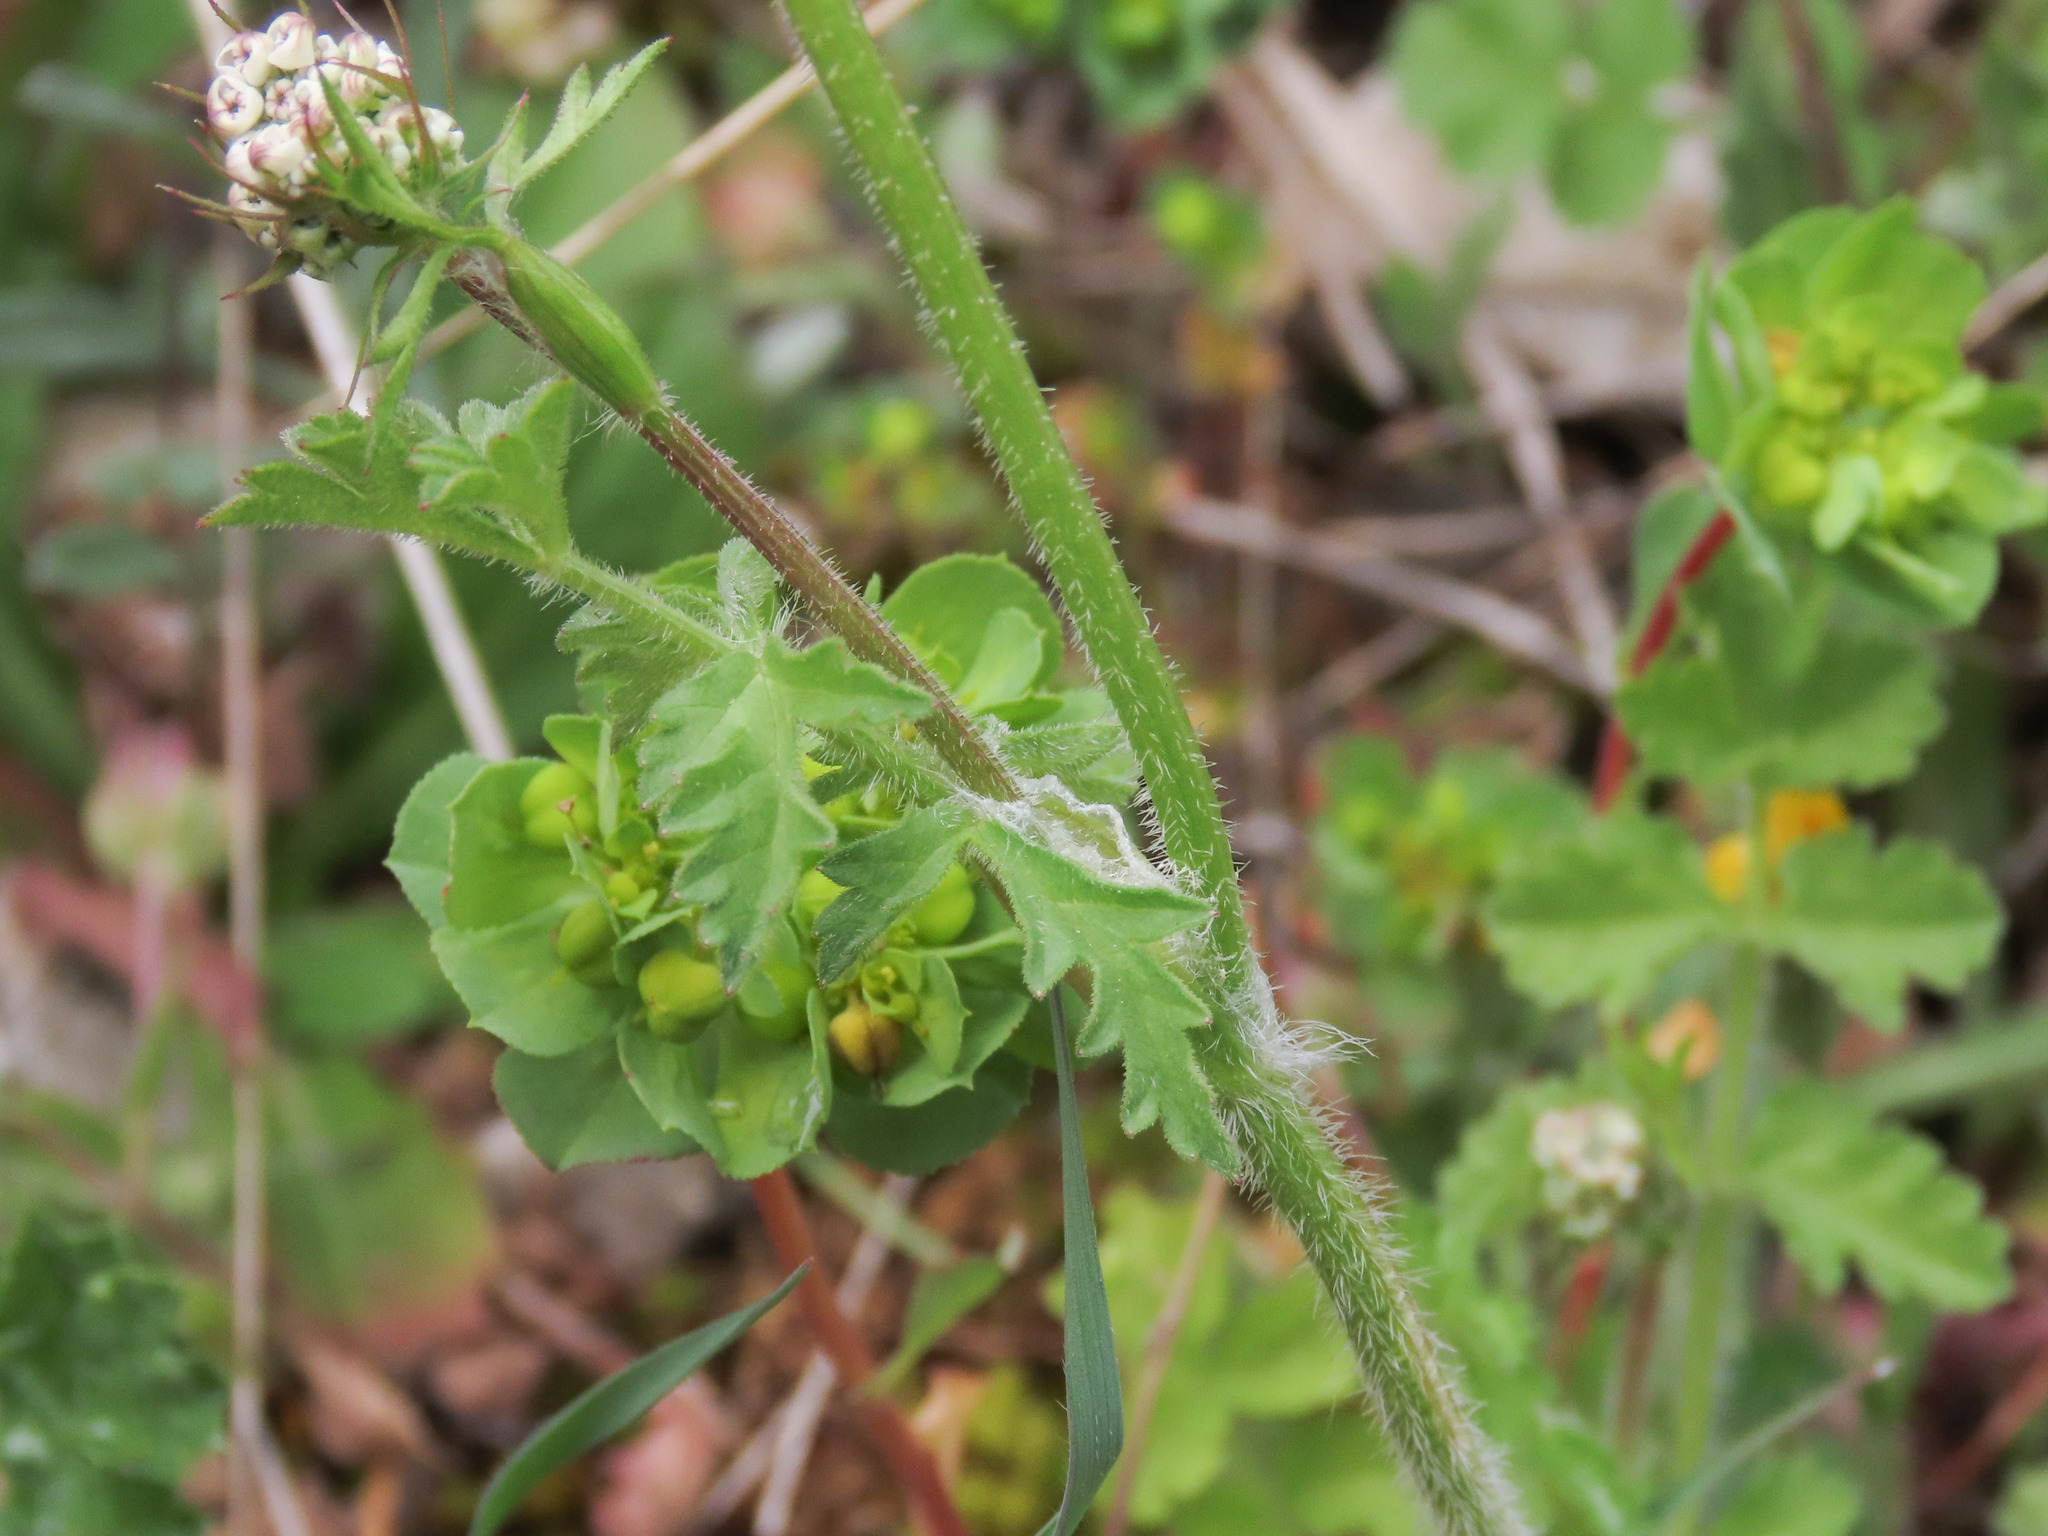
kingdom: Plantae
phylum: Tracheophyta
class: Magnoliopsida
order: Apiales
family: Apiaceae
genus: Tordylium
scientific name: Tordylium apulum
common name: Mediterranean hartwort
